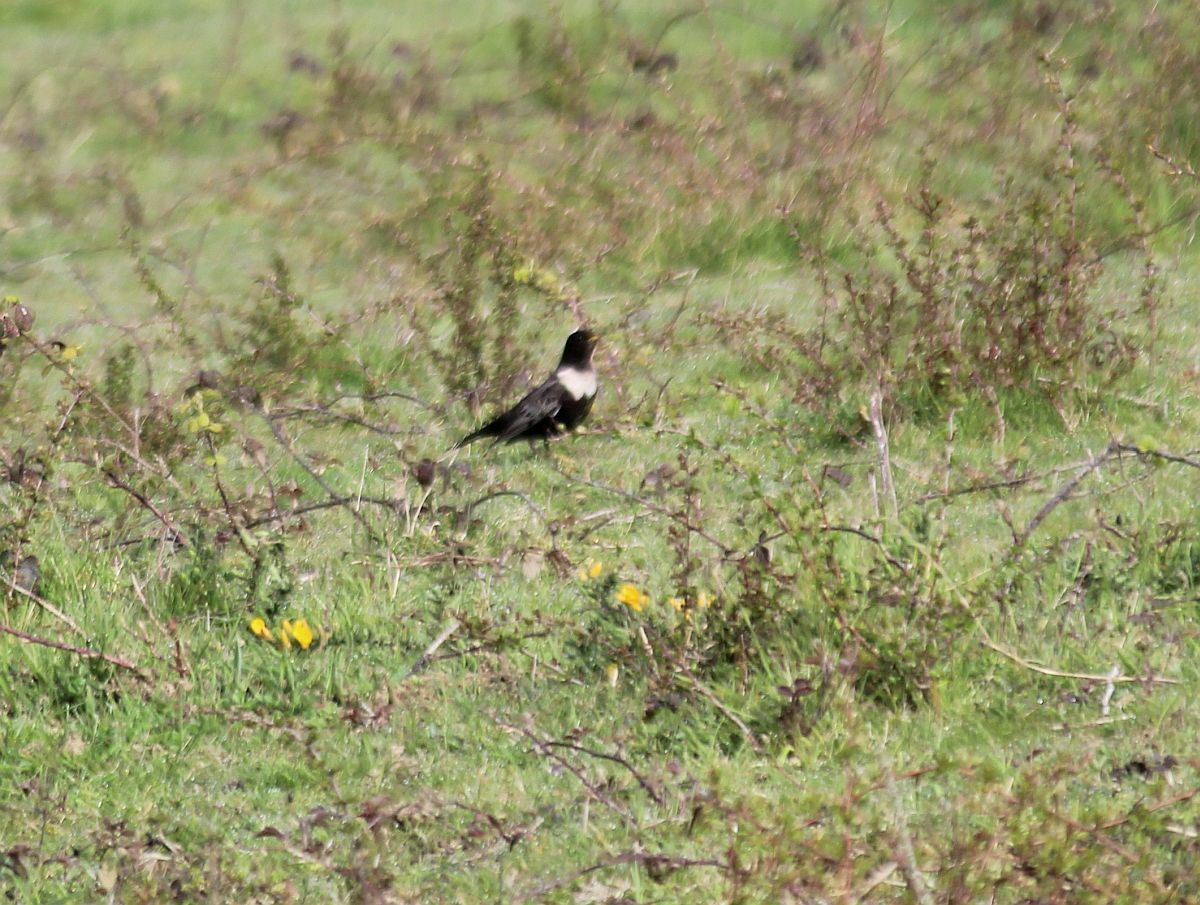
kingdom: Animalia
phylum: Chordata
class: Aves
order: Passeriformes
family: Turdidae
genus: Turdus
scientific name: Turdus torquatus
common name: Ring ouzel
